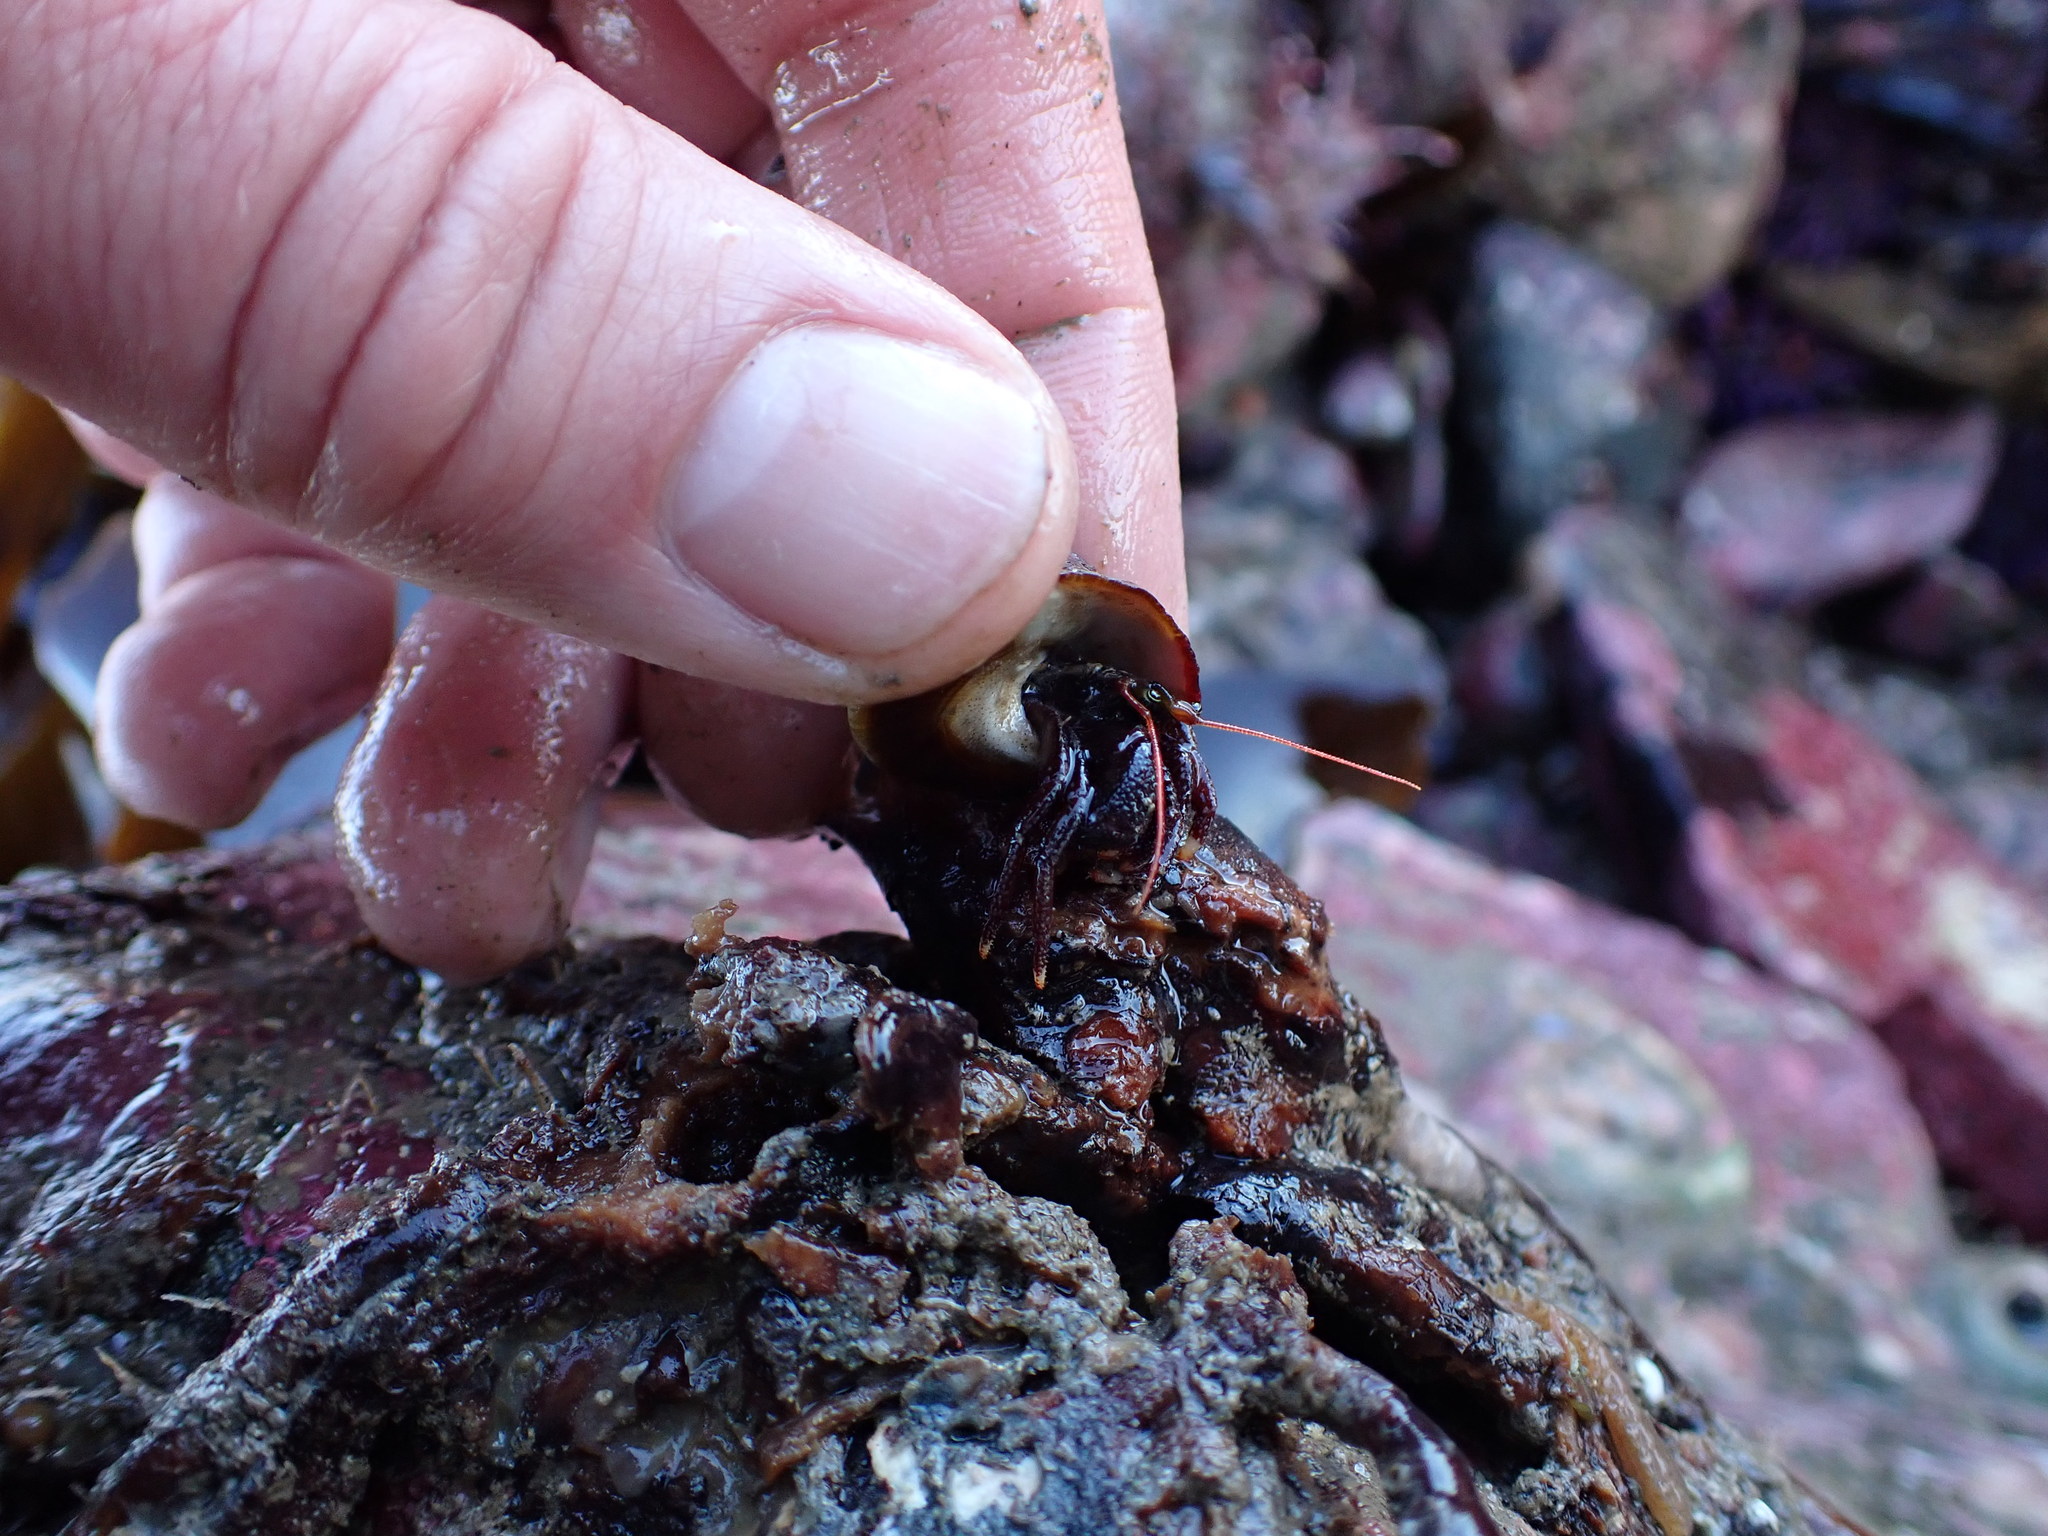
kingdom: Animalia
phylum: Arthropoda
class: Malacostraca
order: Decapoda
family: Paguridae
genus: Pagurus
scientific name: Pagurus hemphilli
